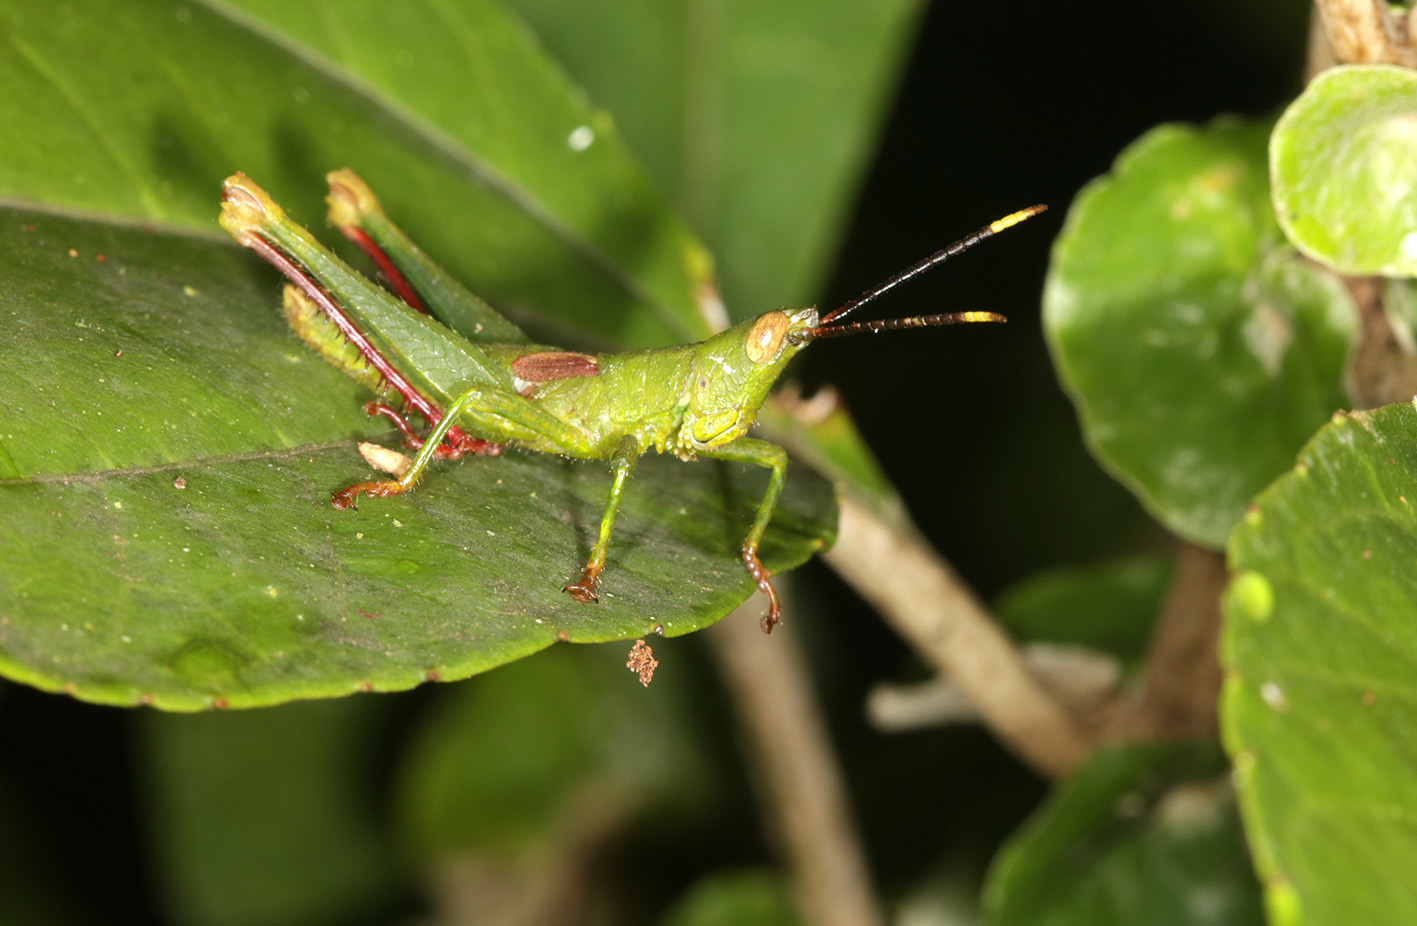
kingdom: Animalia
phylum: Arthropoda
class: Insecta
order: Orthoptera
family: Romaleidae
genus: Graciliparia
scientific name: Graciliparia shuara
